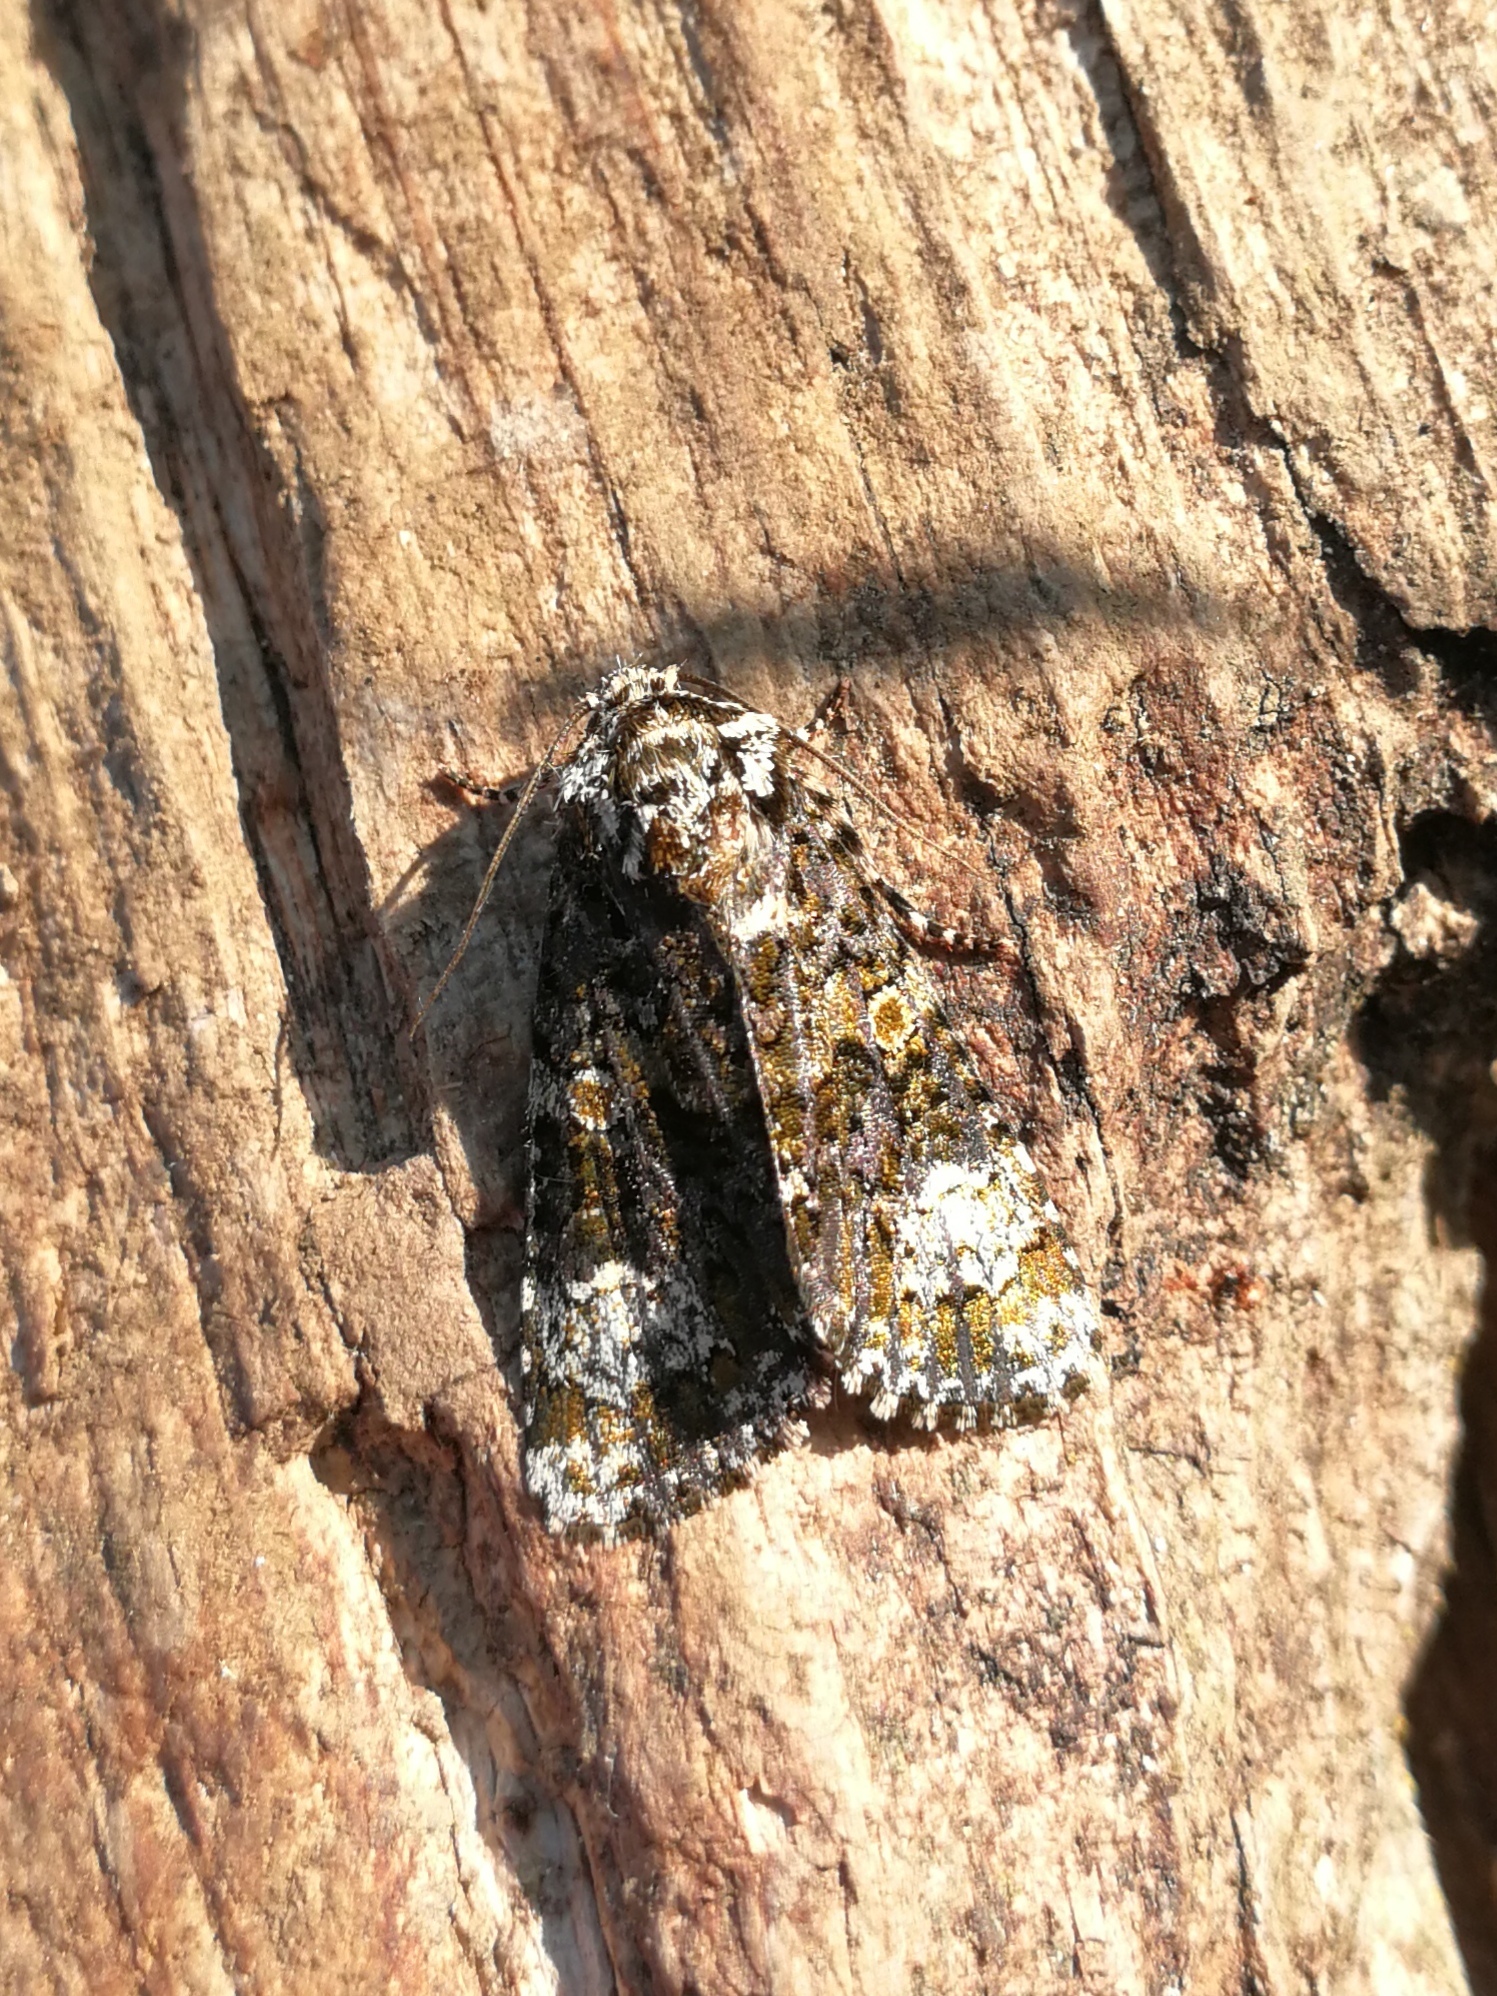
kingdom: Animalia
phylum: Arthropoda
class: Insecta
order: Lepidoptera
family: Noctuidae
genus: Craniophora
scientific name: Craniophora ligustri
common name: Coronet
